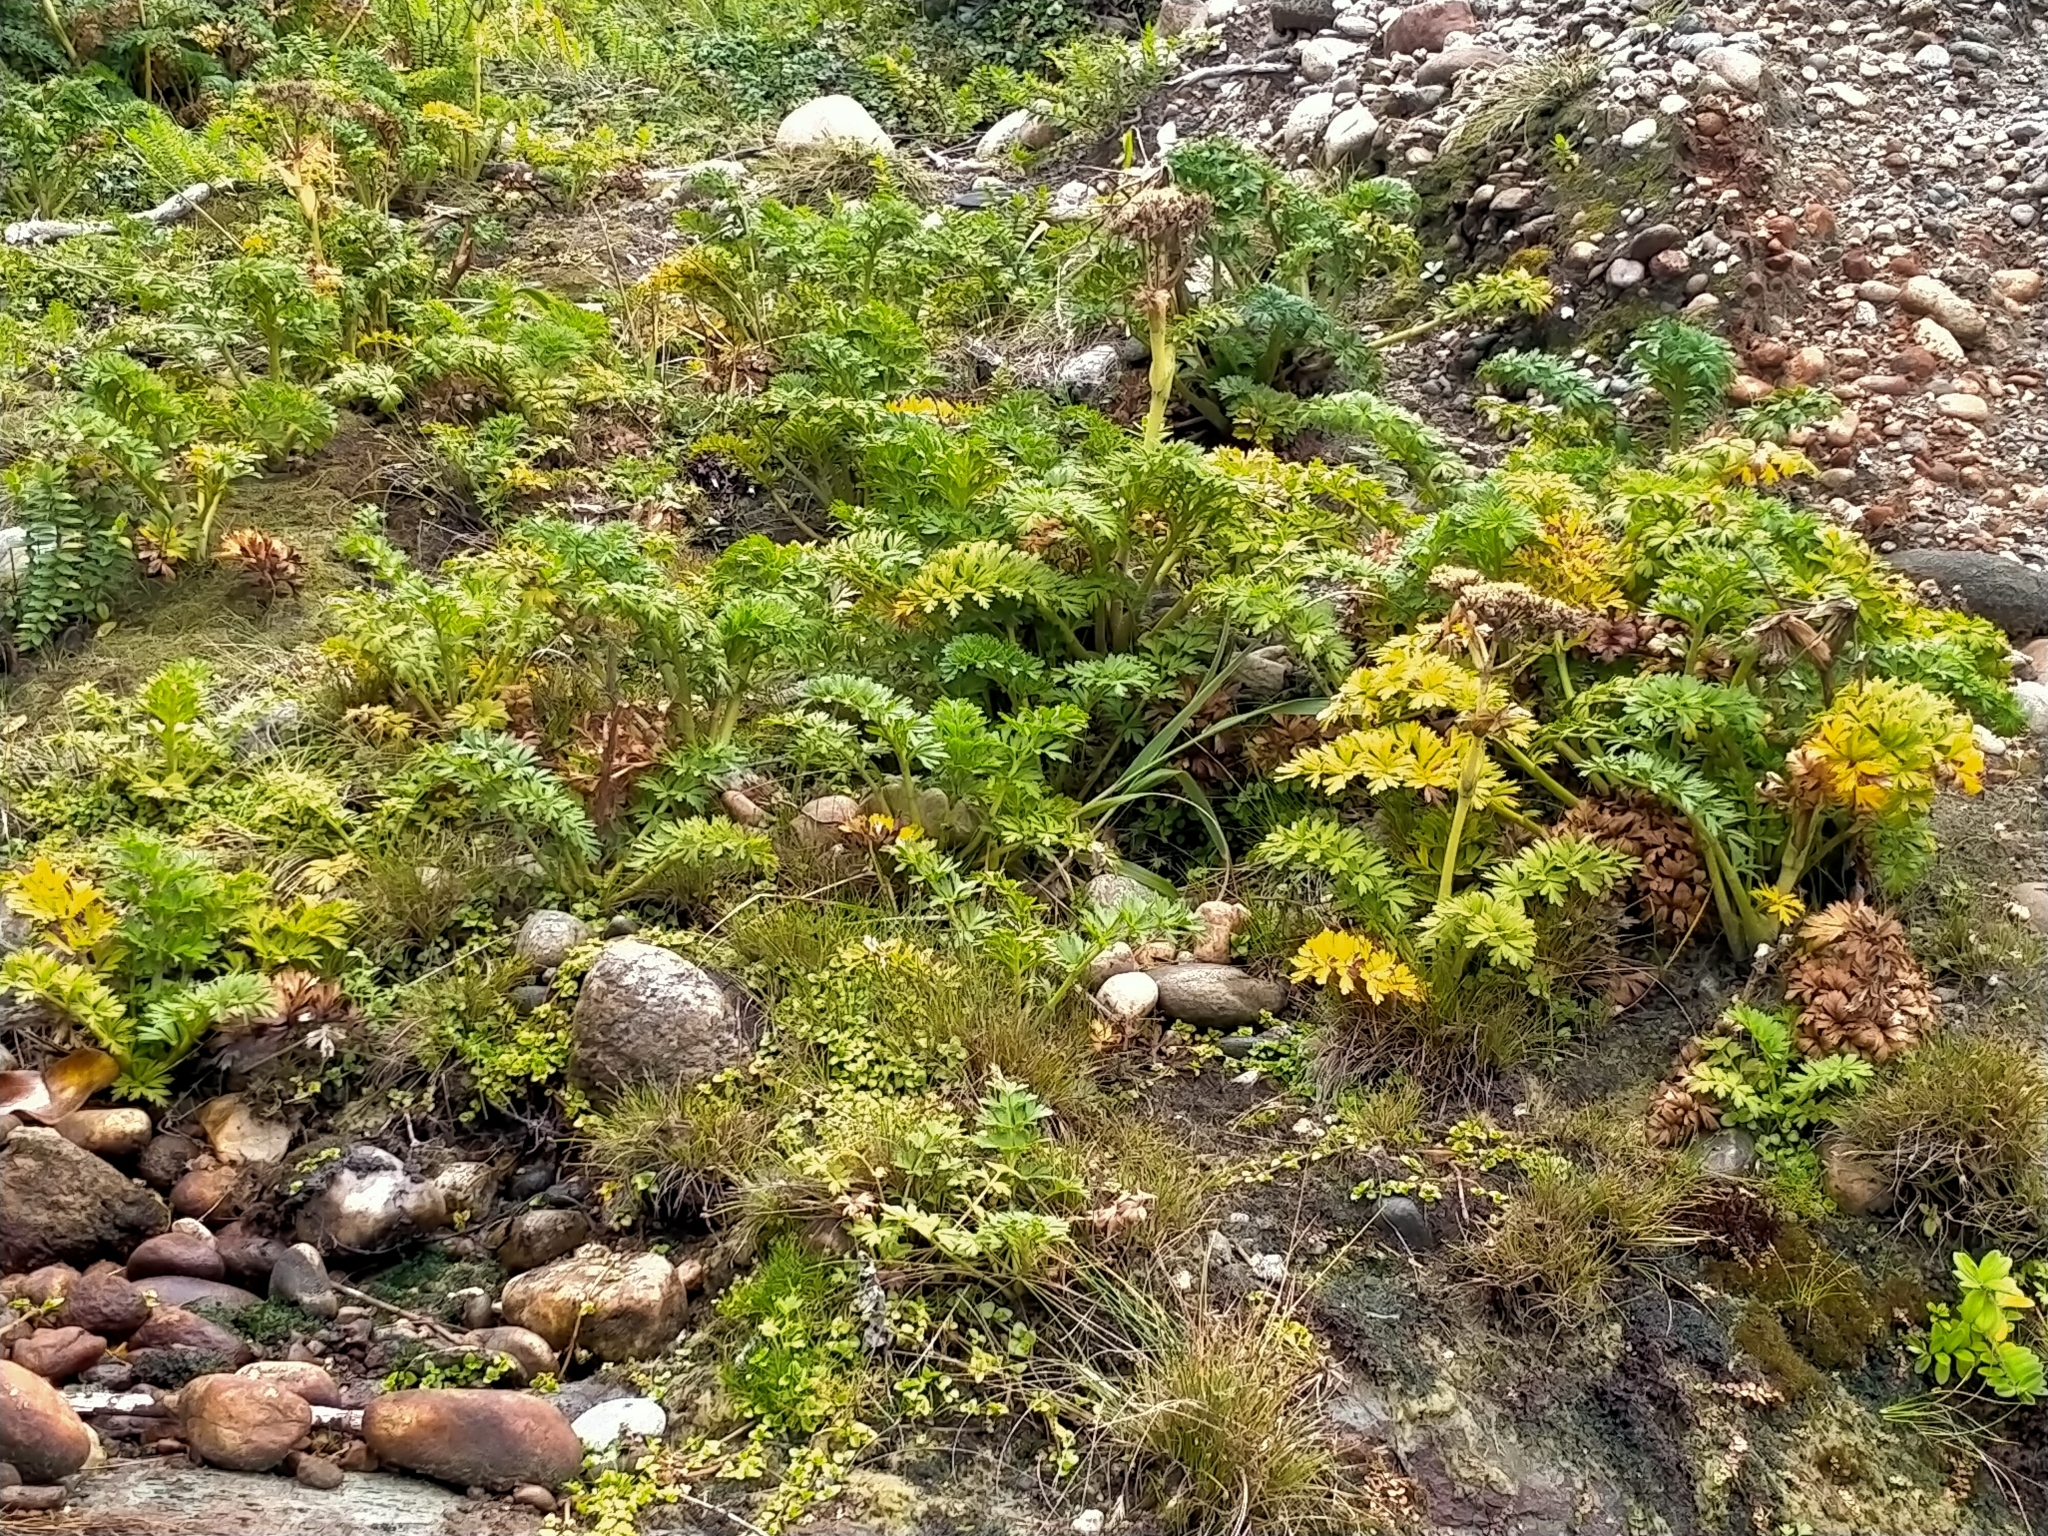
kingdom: Plantae
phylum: Tracheophyta
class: Magnoliopsida
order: Apiales
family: Apiaceae
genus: Anisotome
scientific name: Anisotome lyallii
